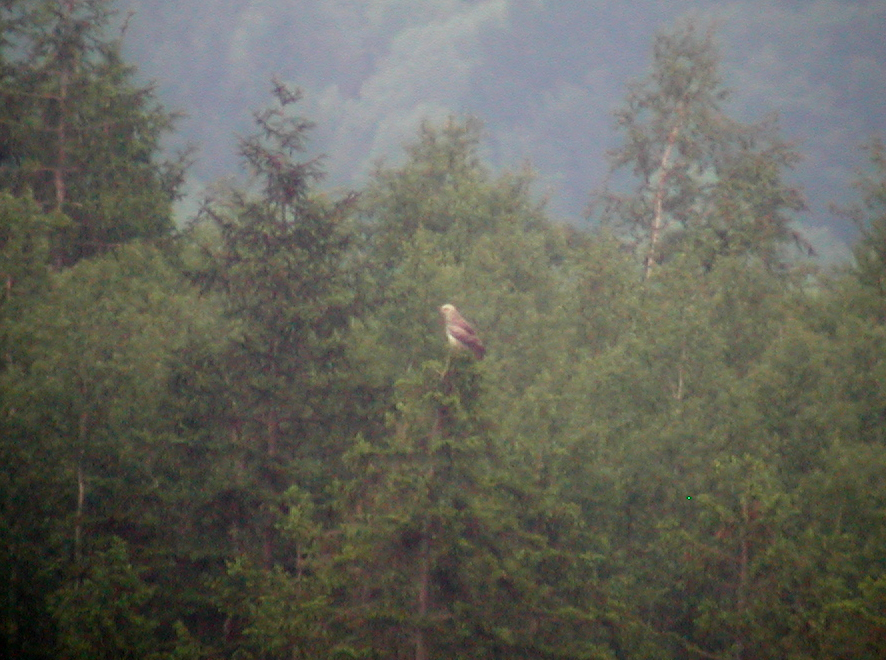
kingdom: Animalia
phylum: Chordata
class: Aves
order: Accipitriformes
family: Accipitridae
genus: Circaetus
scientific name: Circaetus gallicus
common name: Short-toed snake eagle
